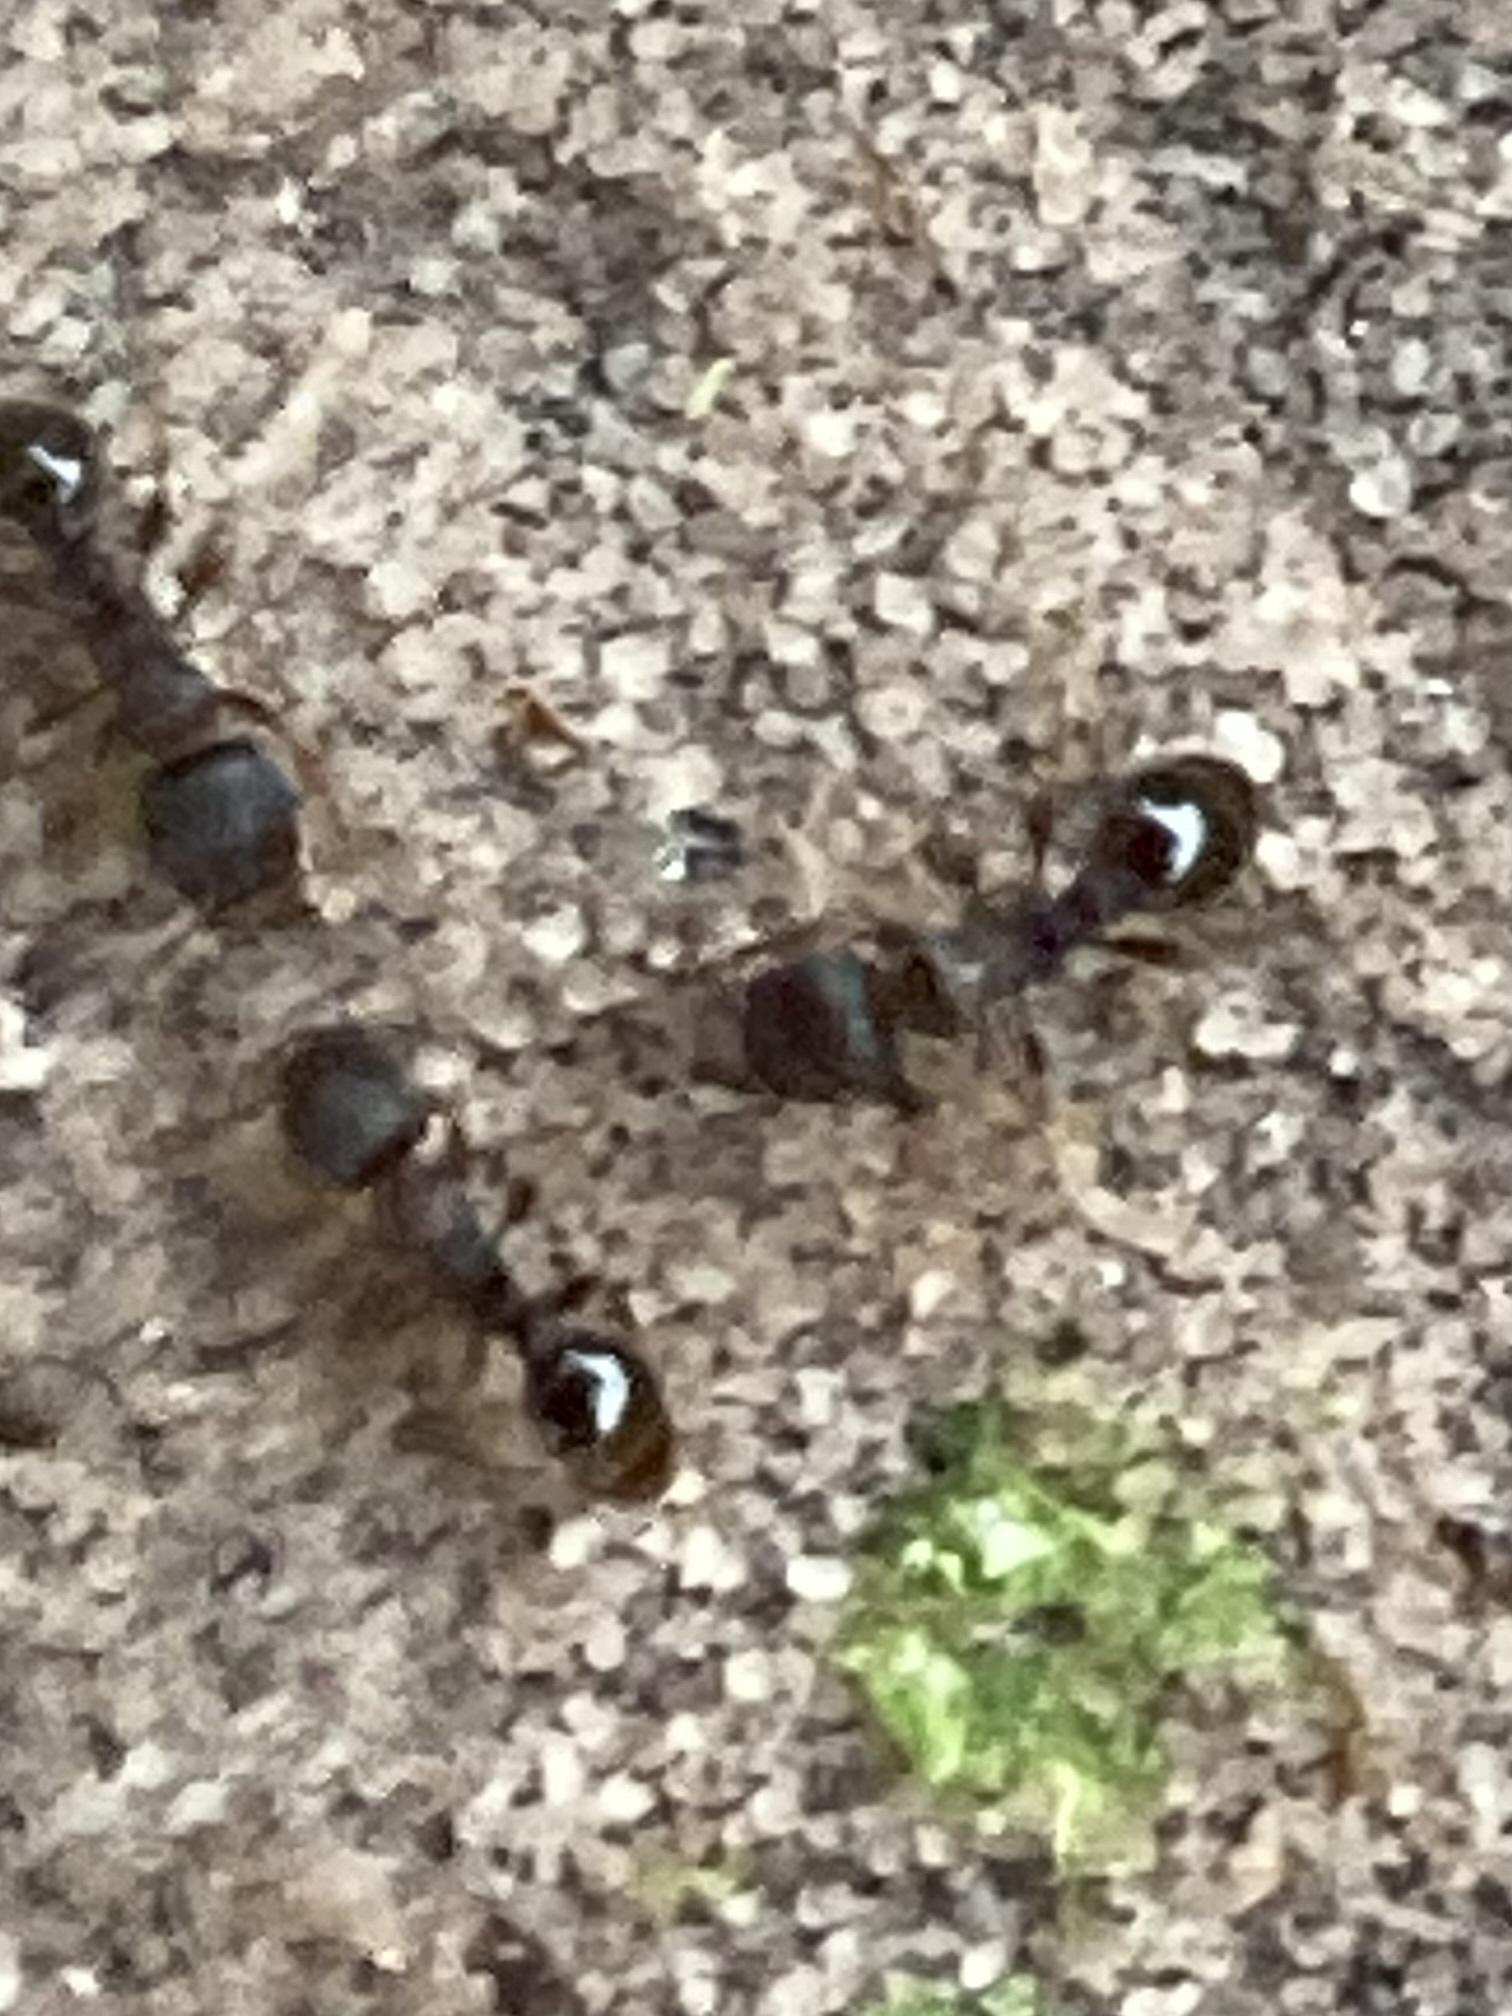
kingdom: Animalia
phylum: Arthropoda
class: Insecta
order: Hymenoptera
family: Formicidae
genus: Tetramorium
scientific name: Tetramorium immigrans
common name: Pavement ant
